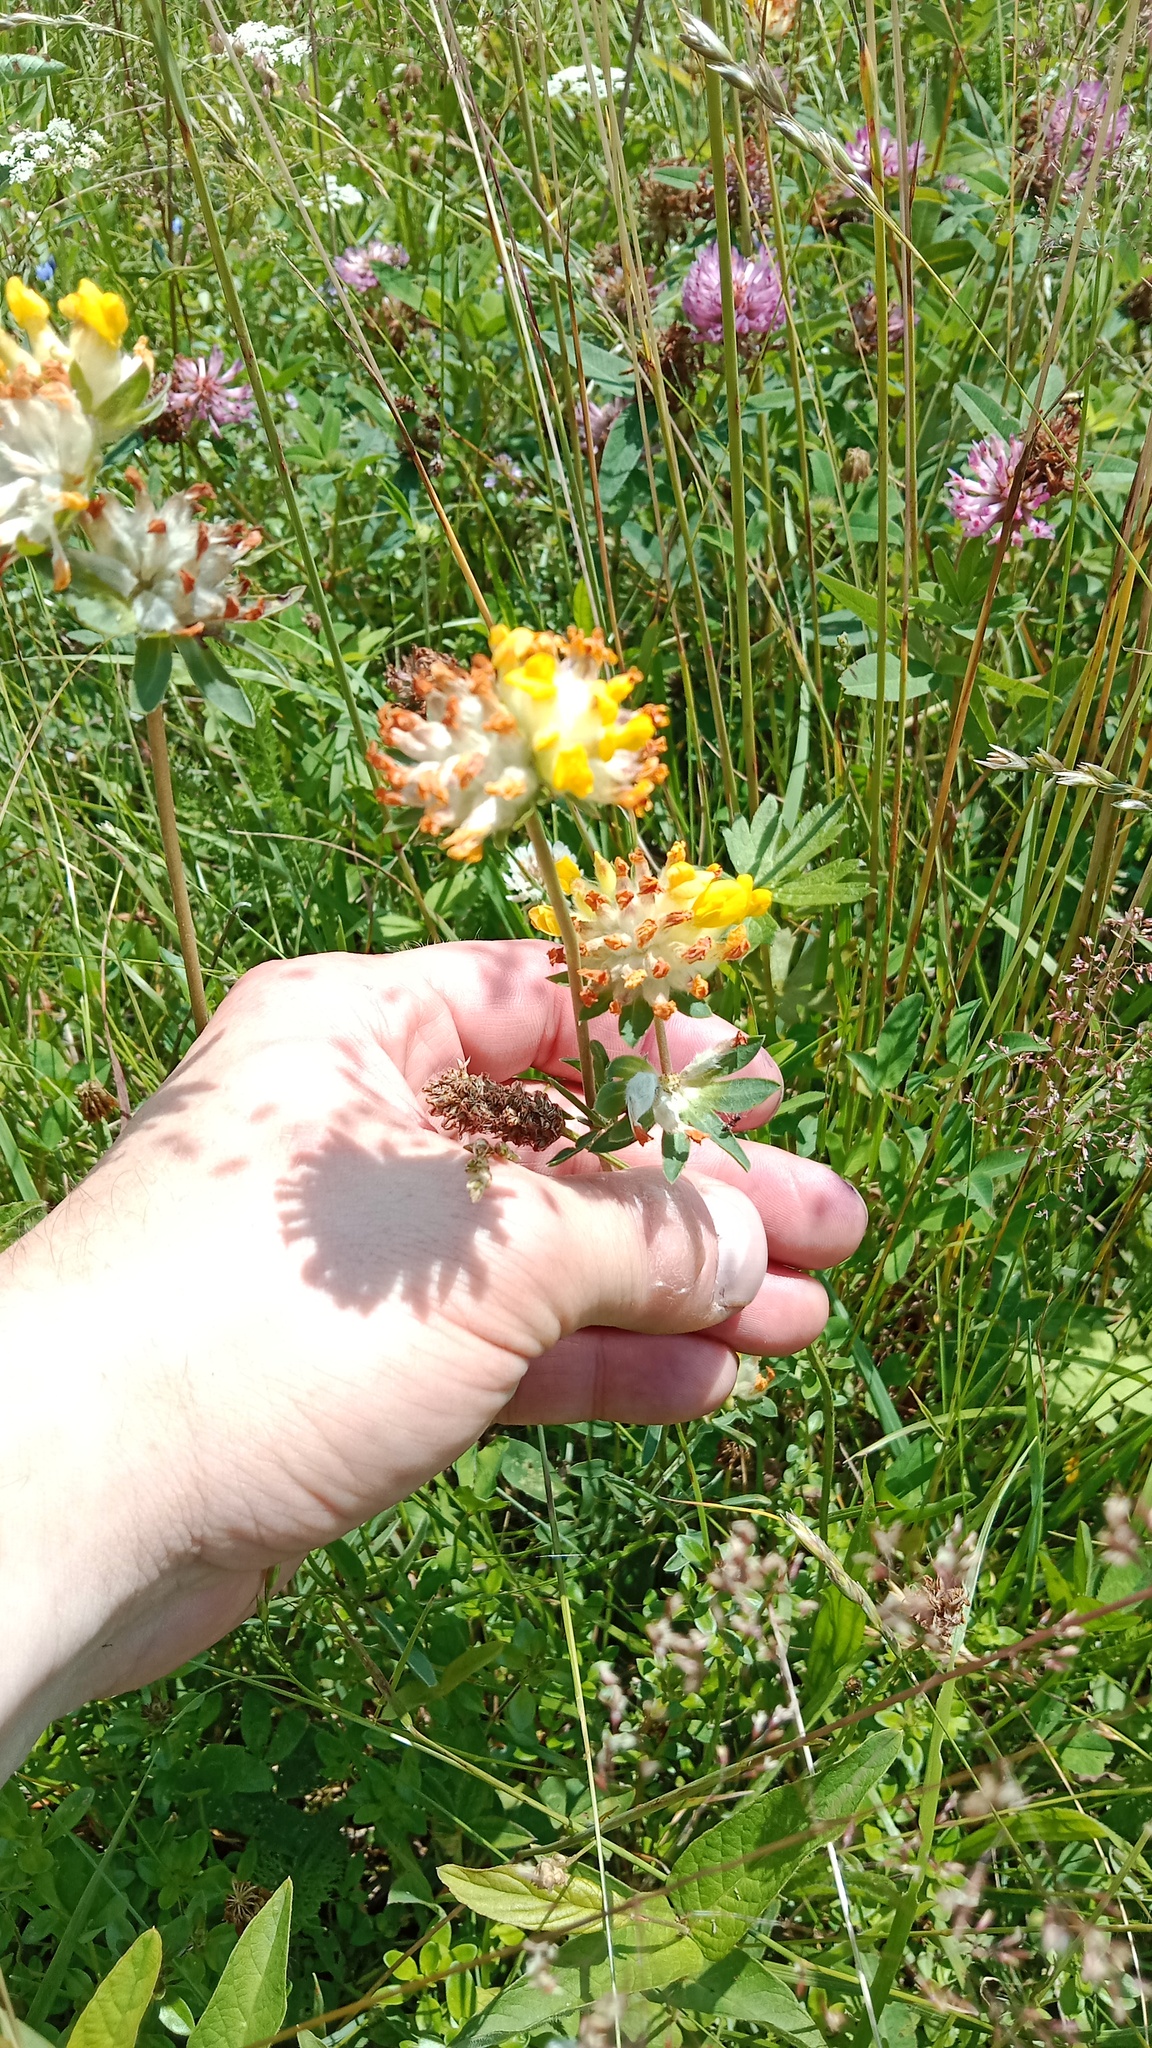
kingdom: Plantae
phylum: Tracheophyta
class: Magnoliopsida
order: Fabales
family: Fabaceae
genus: Anthyllis
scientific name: Anthyllis vulneraria
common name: Kidney vetch
